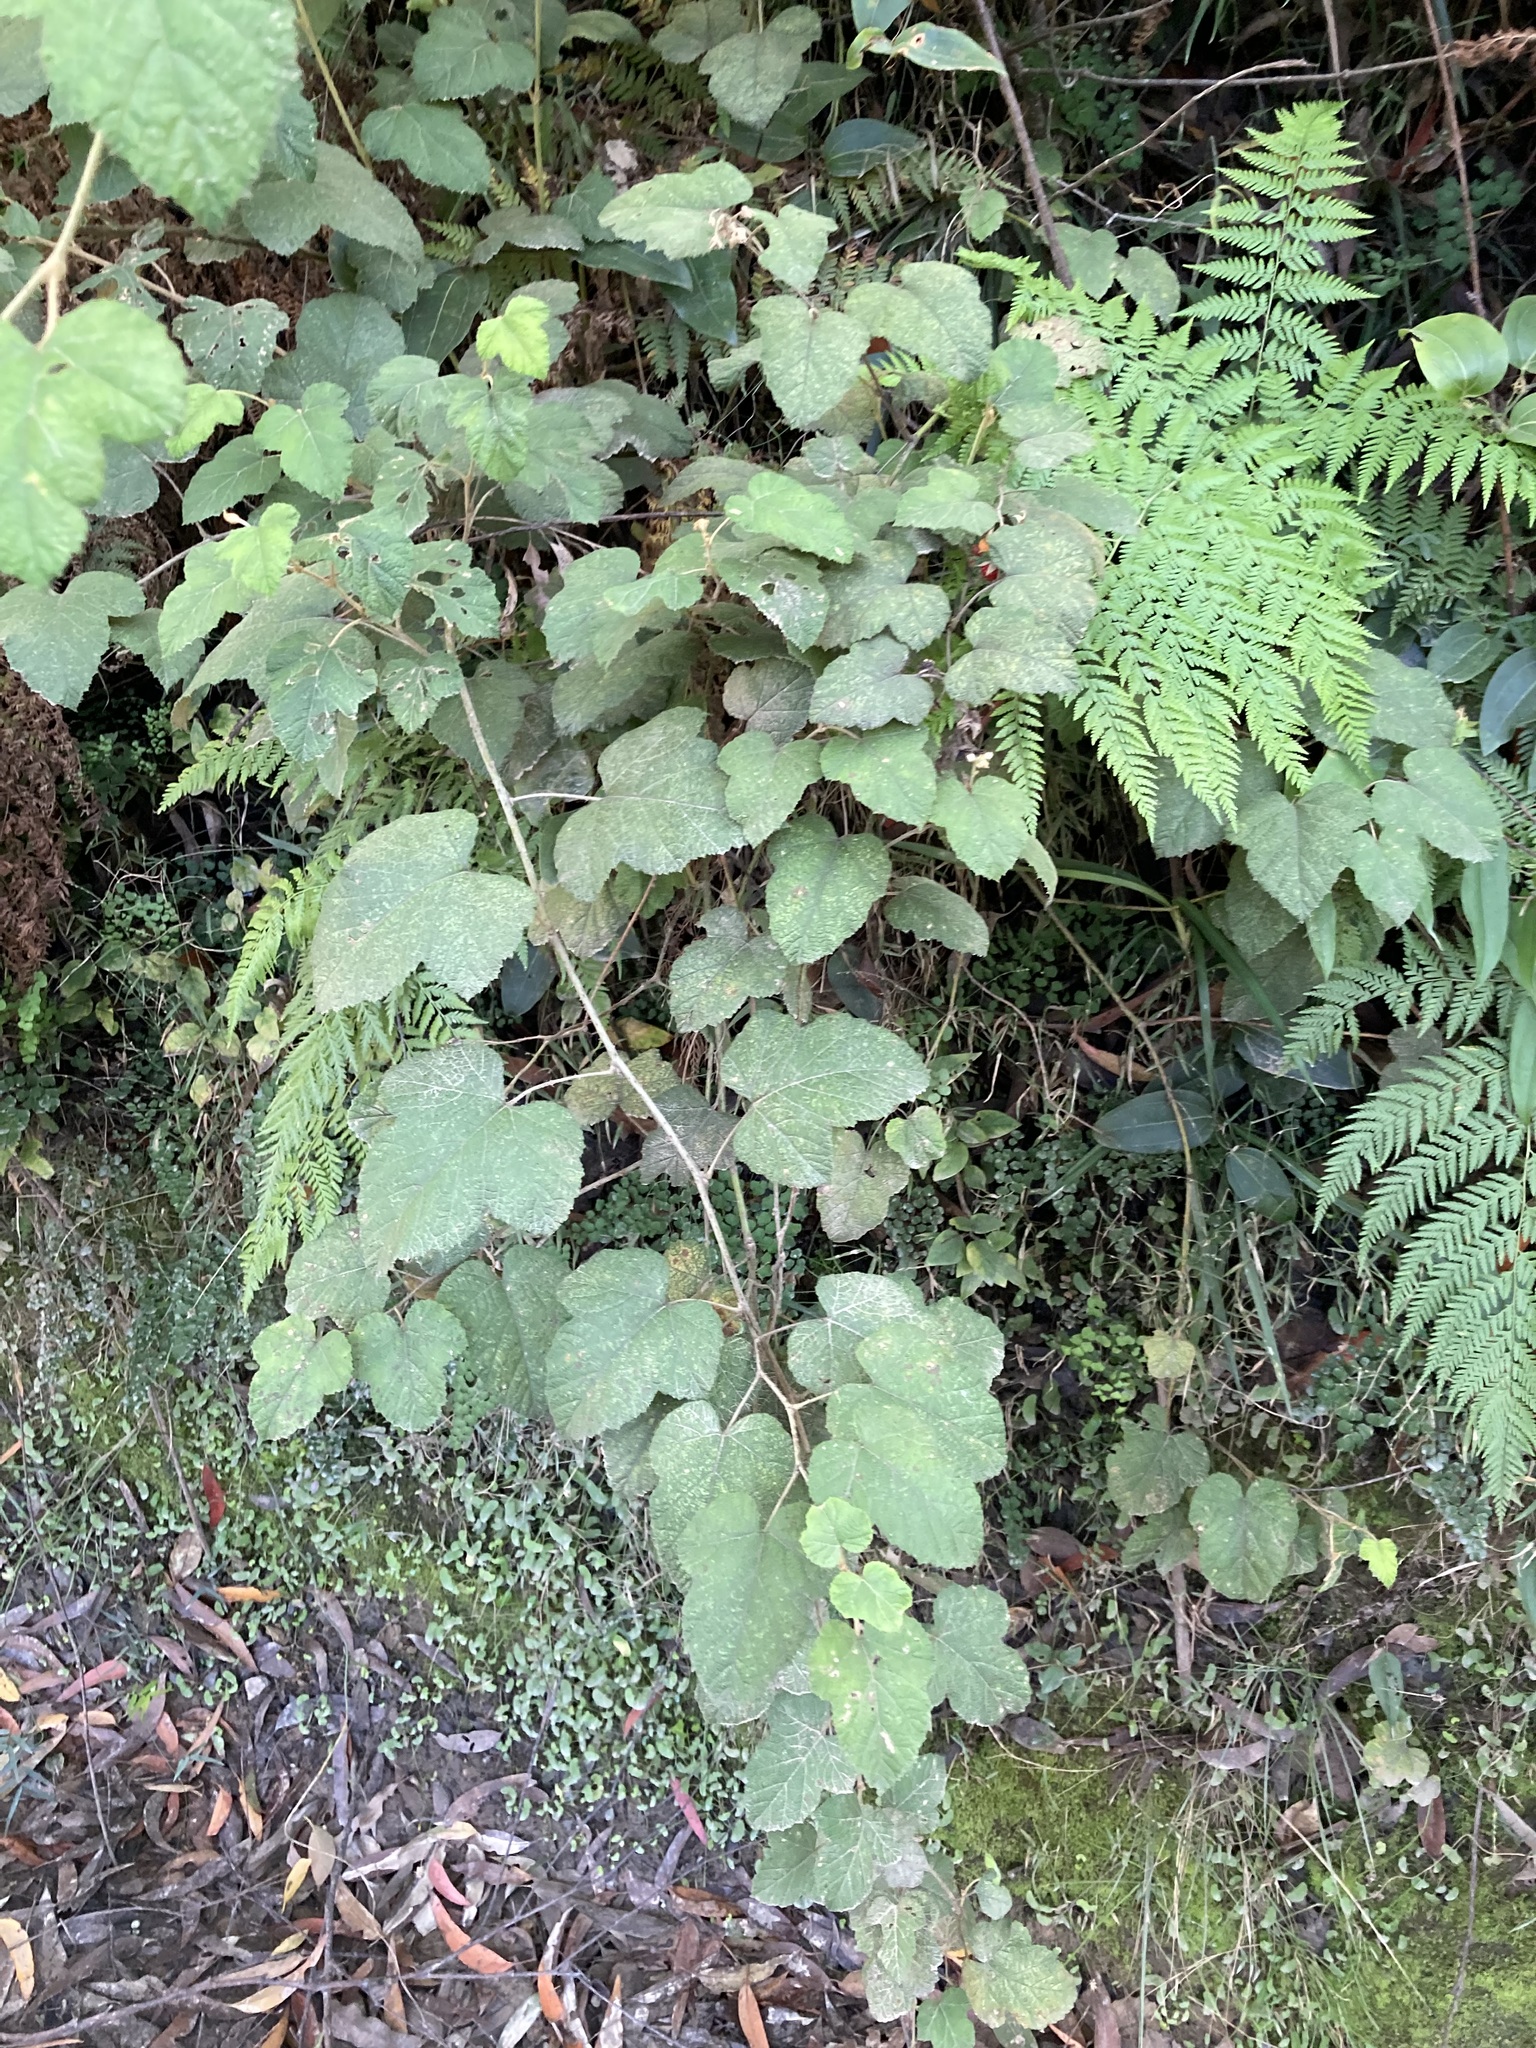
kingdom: Plantae
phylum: Tracheophyta
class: Magnoliopsida
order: Rosales
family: Rosaceae
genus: Rubus
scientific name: Rubus moluccanus
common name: Wild raspberry
